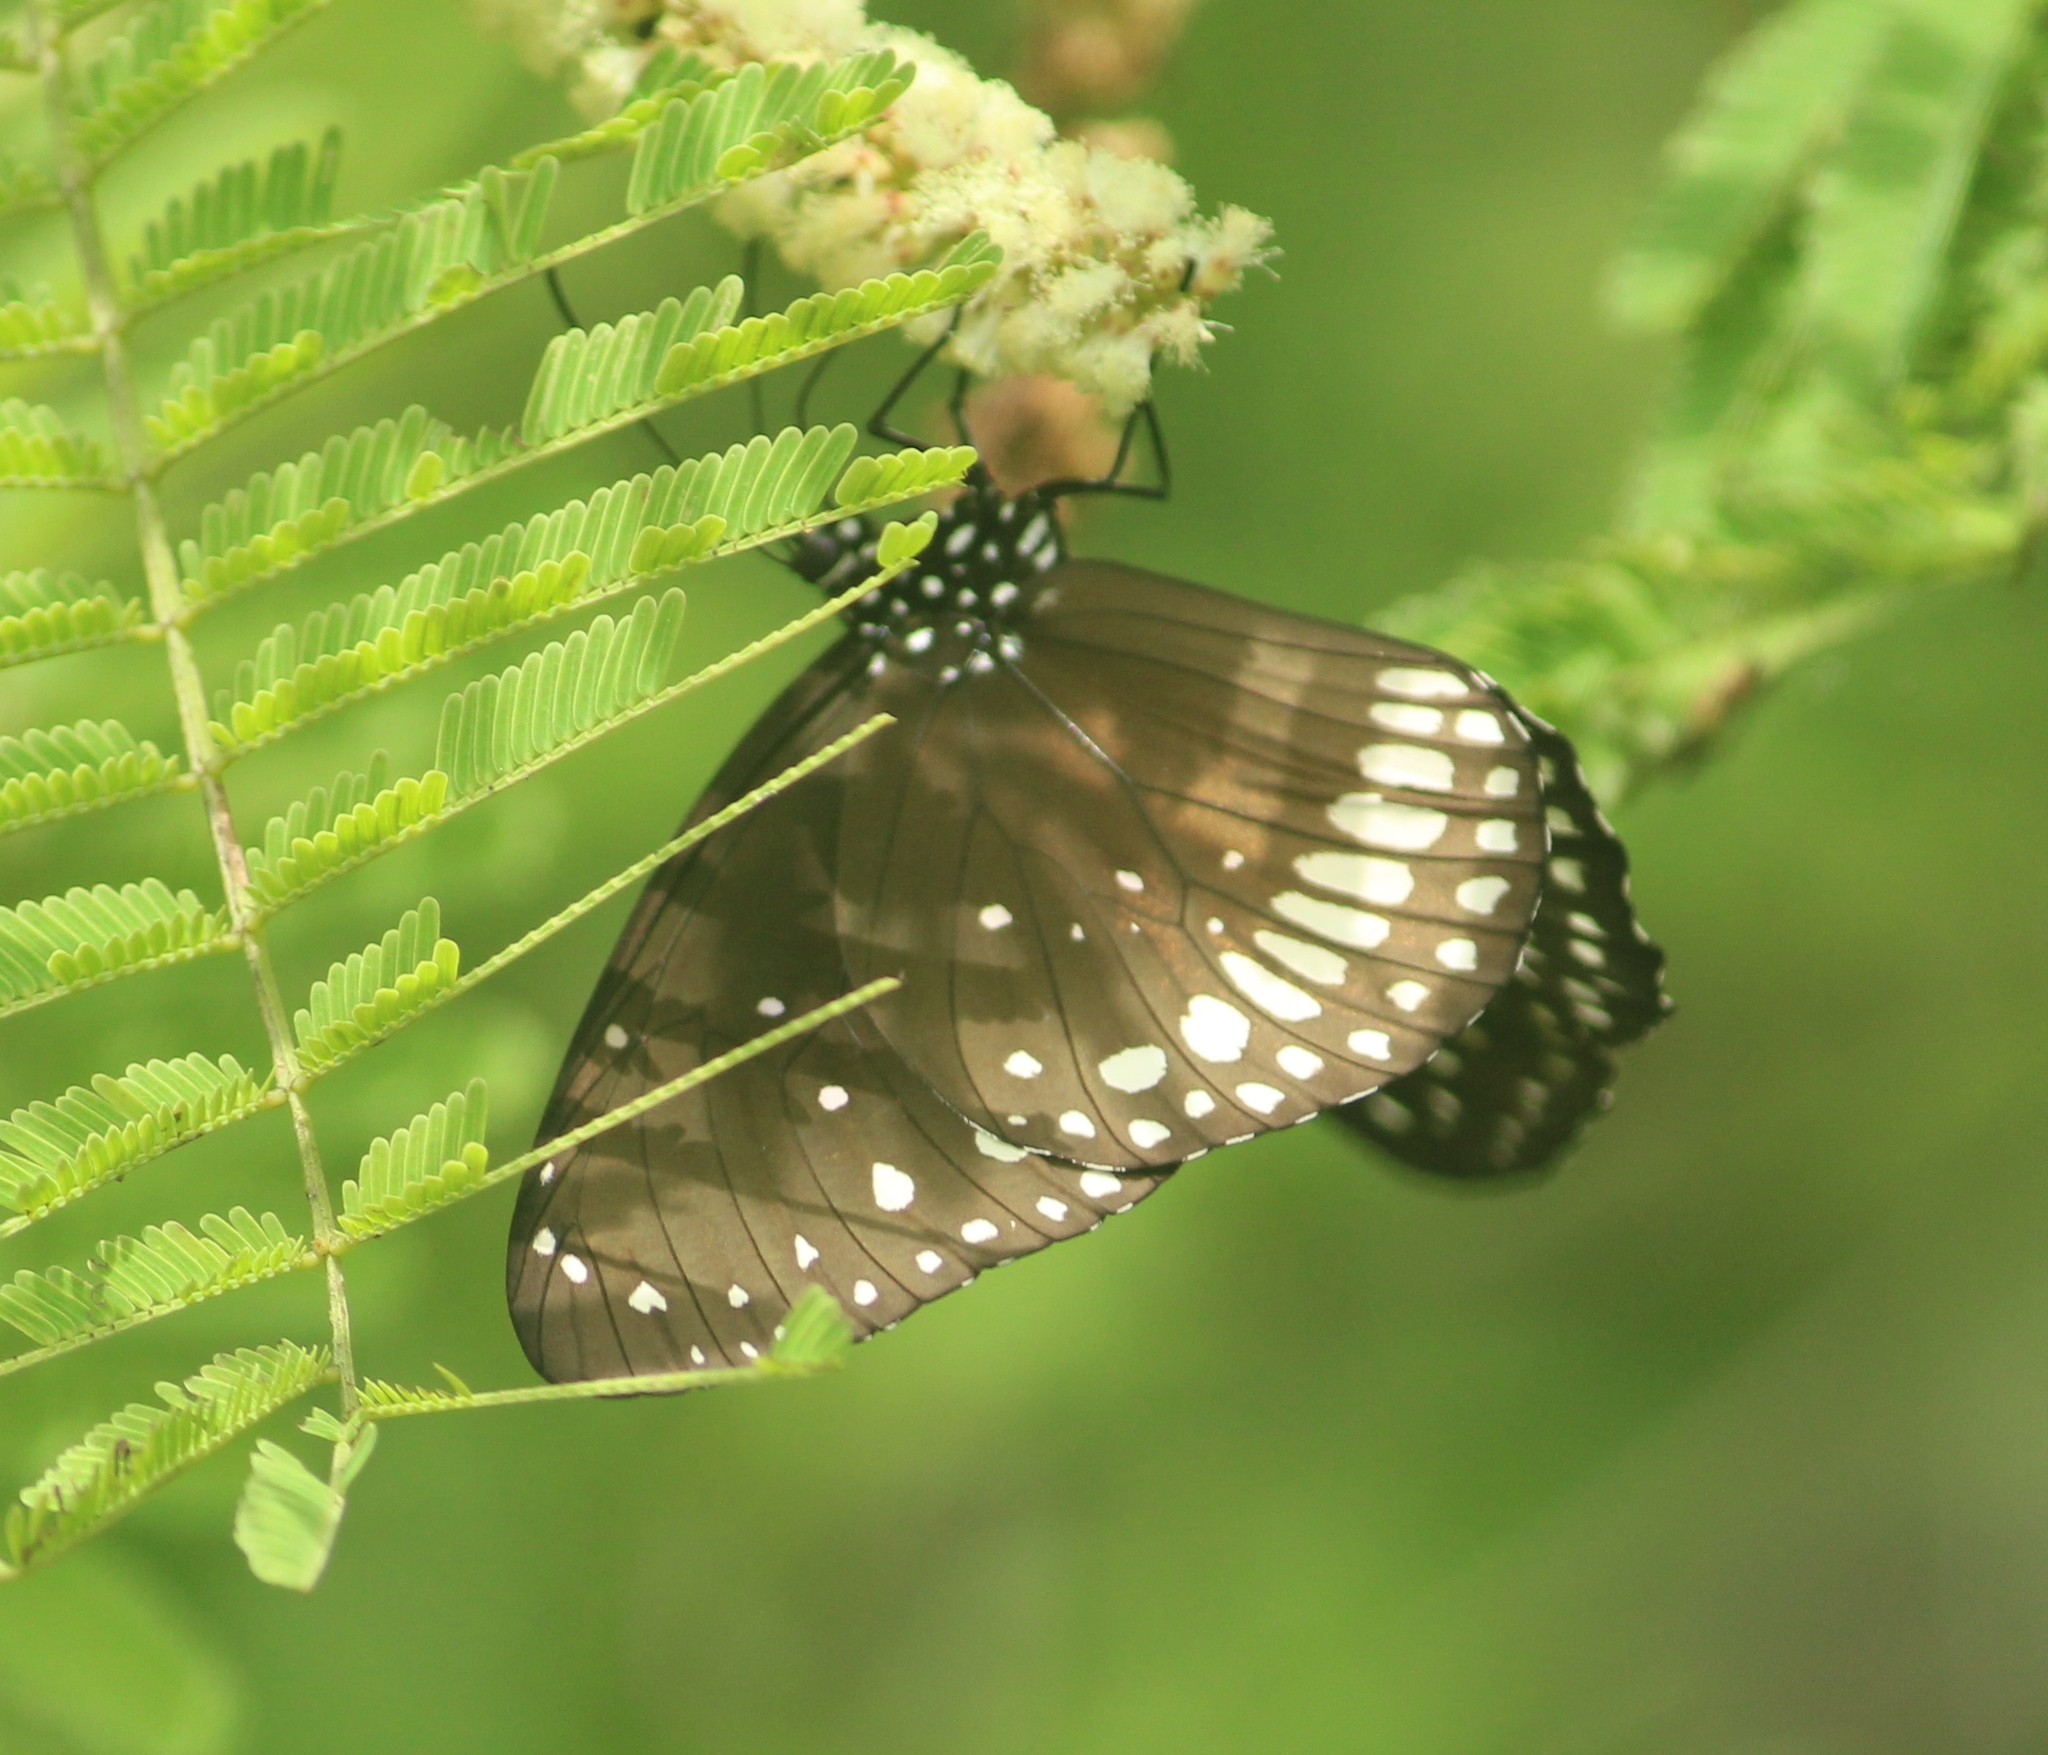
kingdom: Animalia
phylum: Arthropoda
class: Insecta
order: Lepidoptera
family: Nymphalidae
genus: Euploea
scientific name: Euploea core
